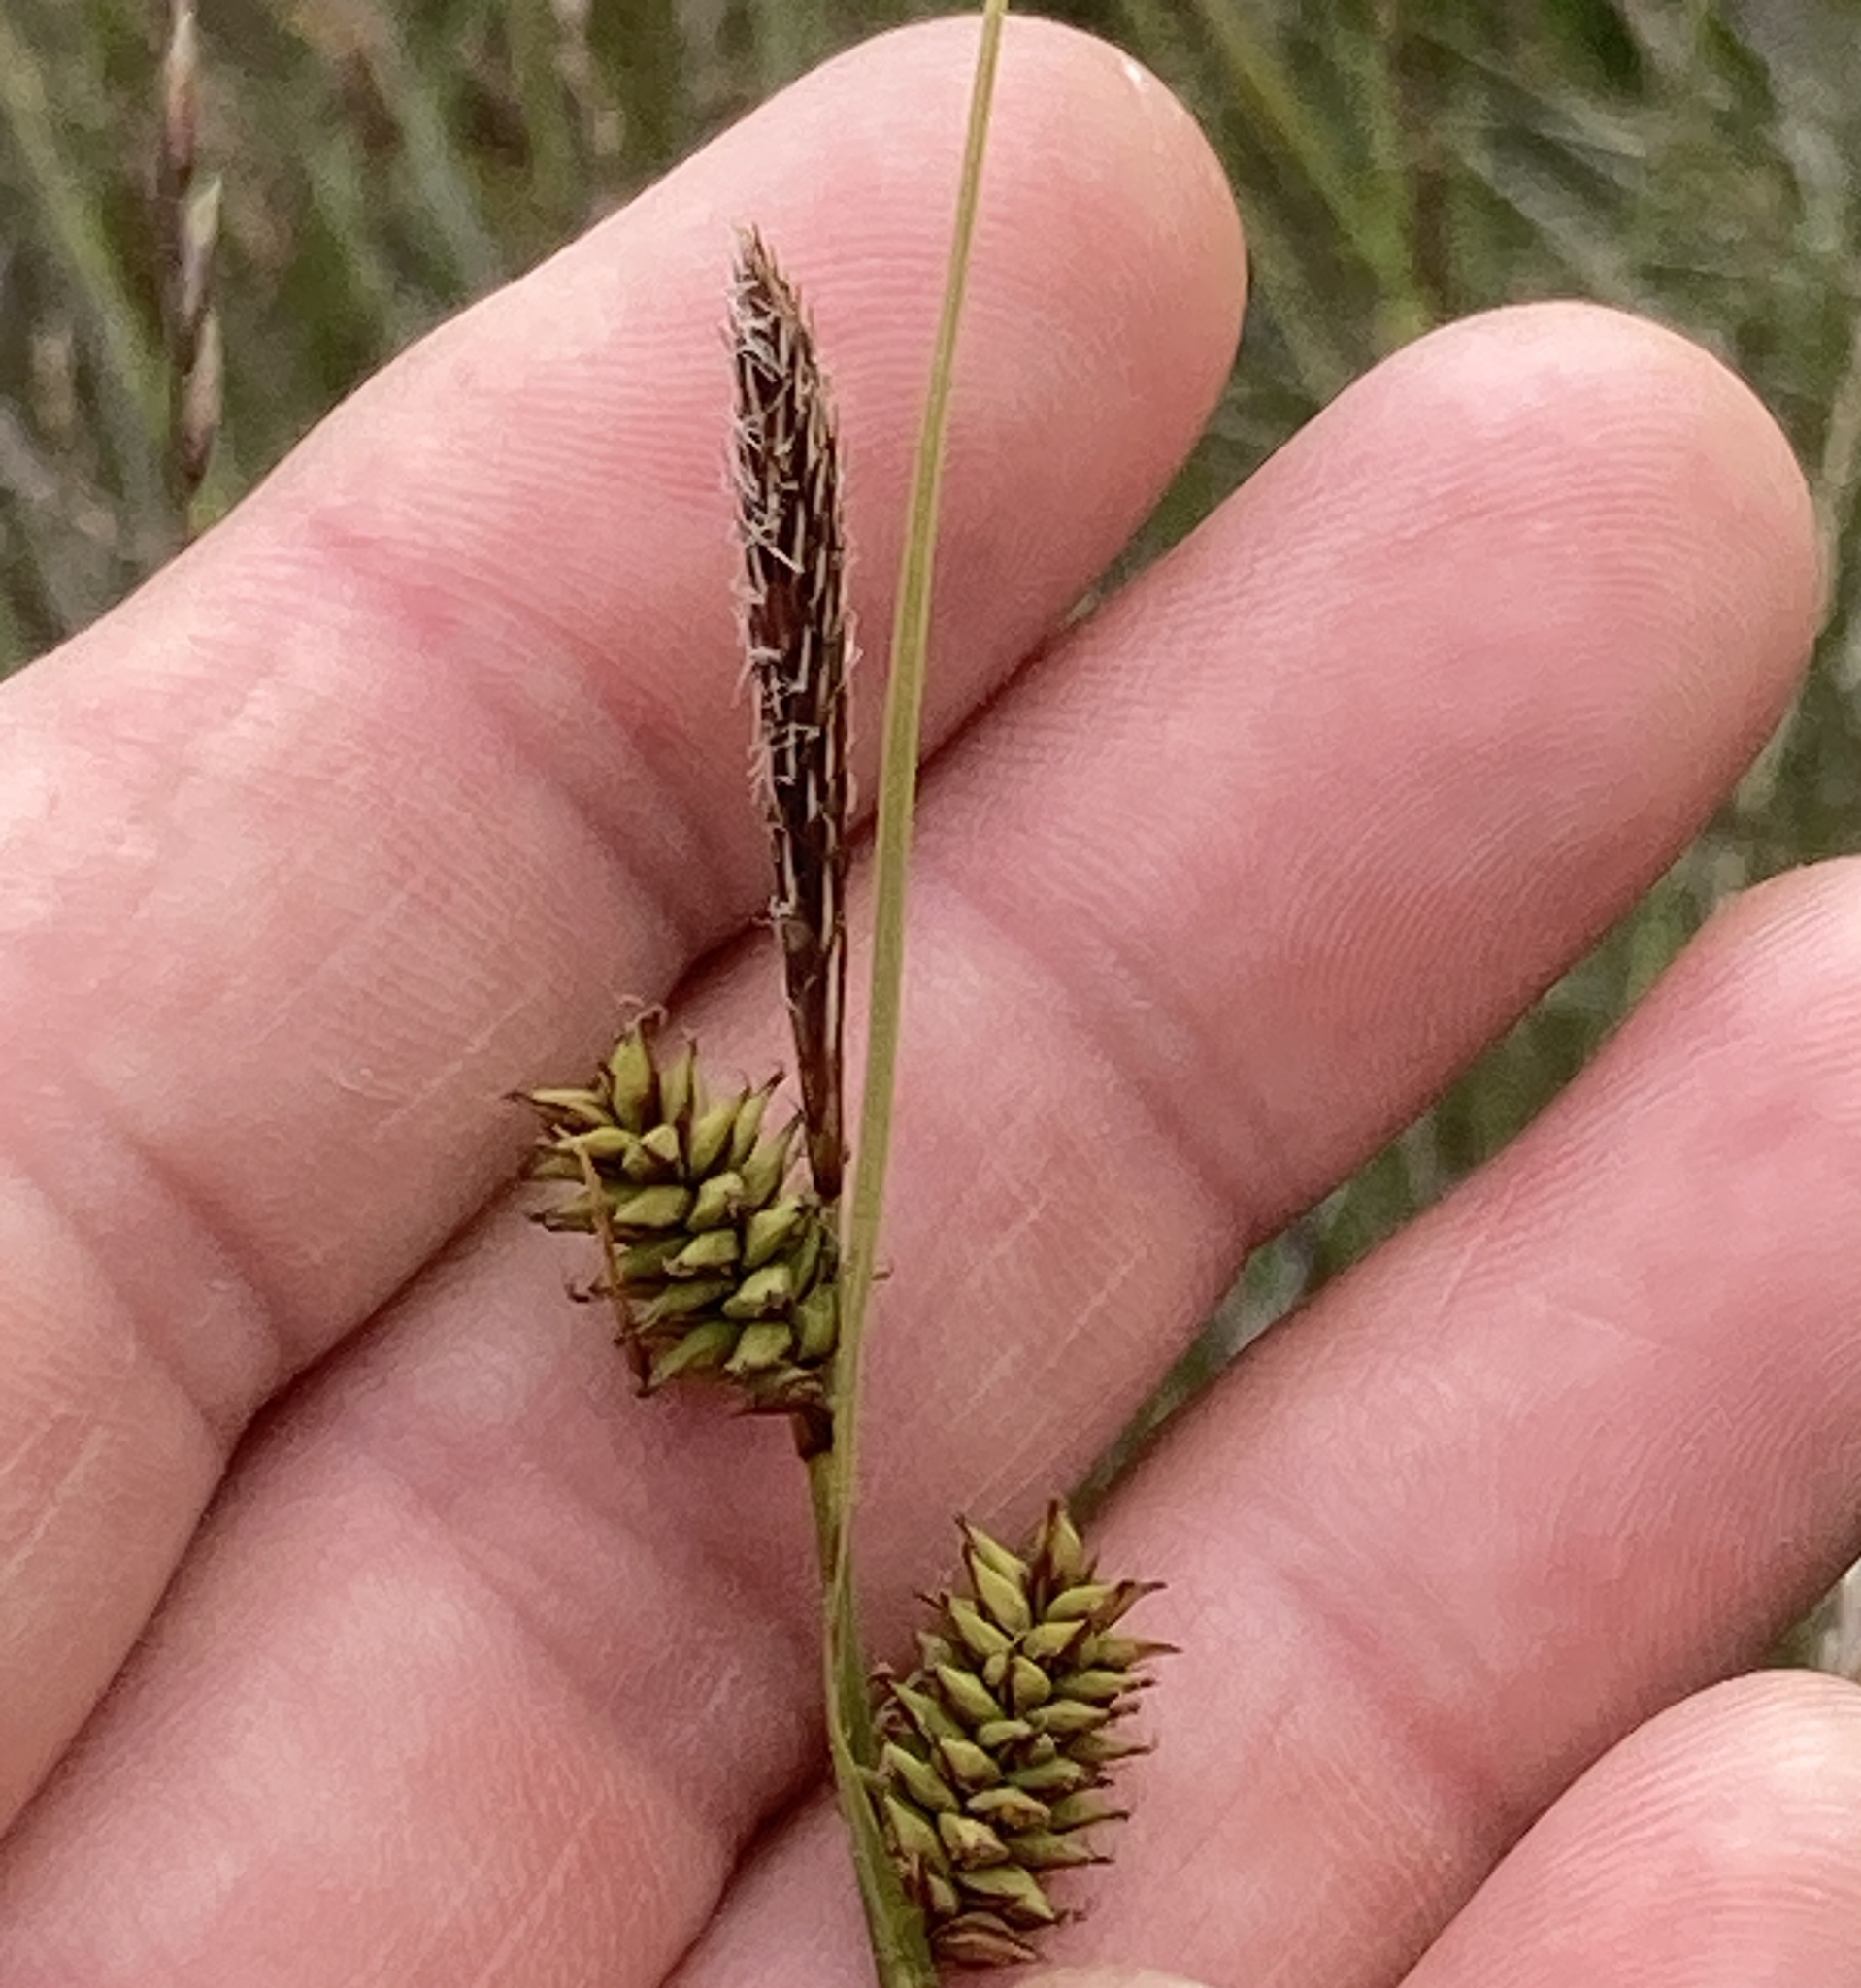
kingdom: Plantae
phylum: Tracheophyta
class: Liliopsida
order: Poales
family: Cyperaceae
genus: Carex
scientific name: Carex serratodens
